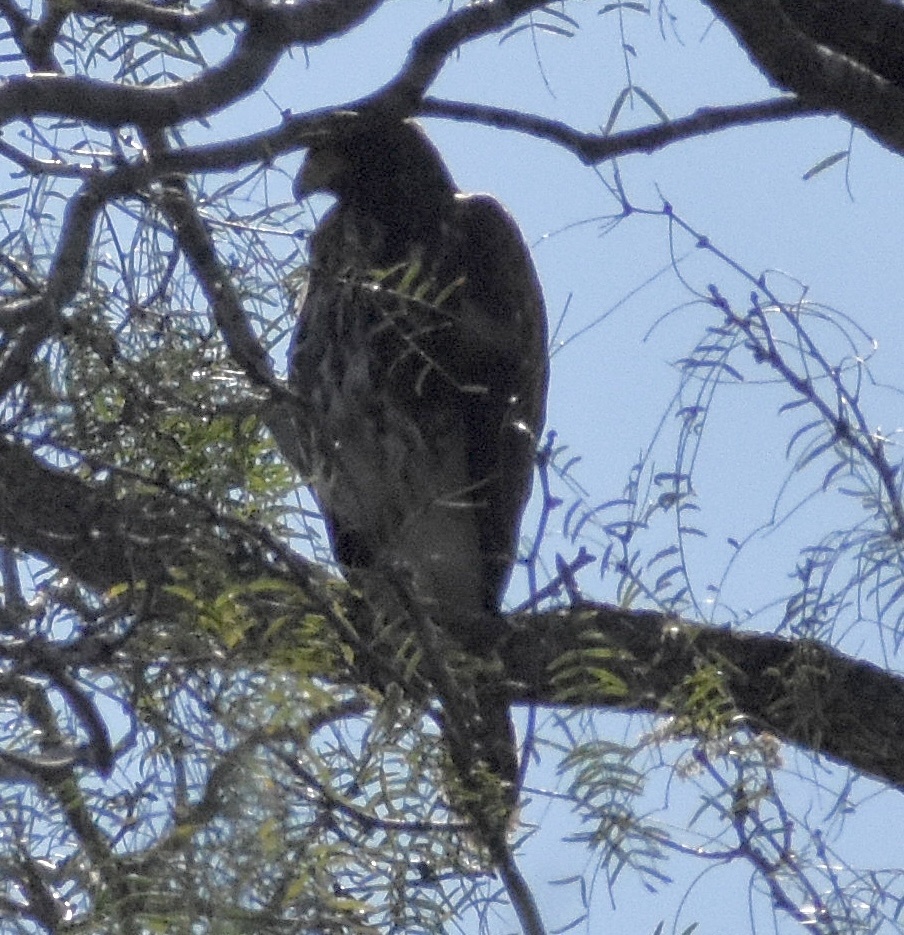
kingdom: Animalia
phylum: Chordata
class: Aves
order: Accipitriformes
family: Accipitridae
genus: Parabuteo
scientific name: Parabuteo unicinctus
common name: Harris's hawk
